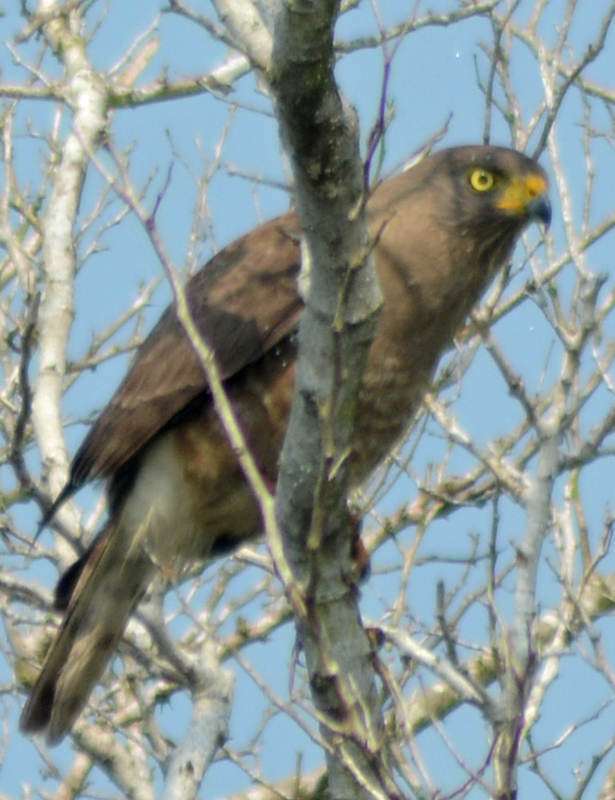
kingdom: Animalia
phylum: Chordata
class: Aves
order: Accipitriformes
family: Accipitridae
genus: Rupornis
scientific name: Rupornis magnirostris
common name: Roadside hawk
